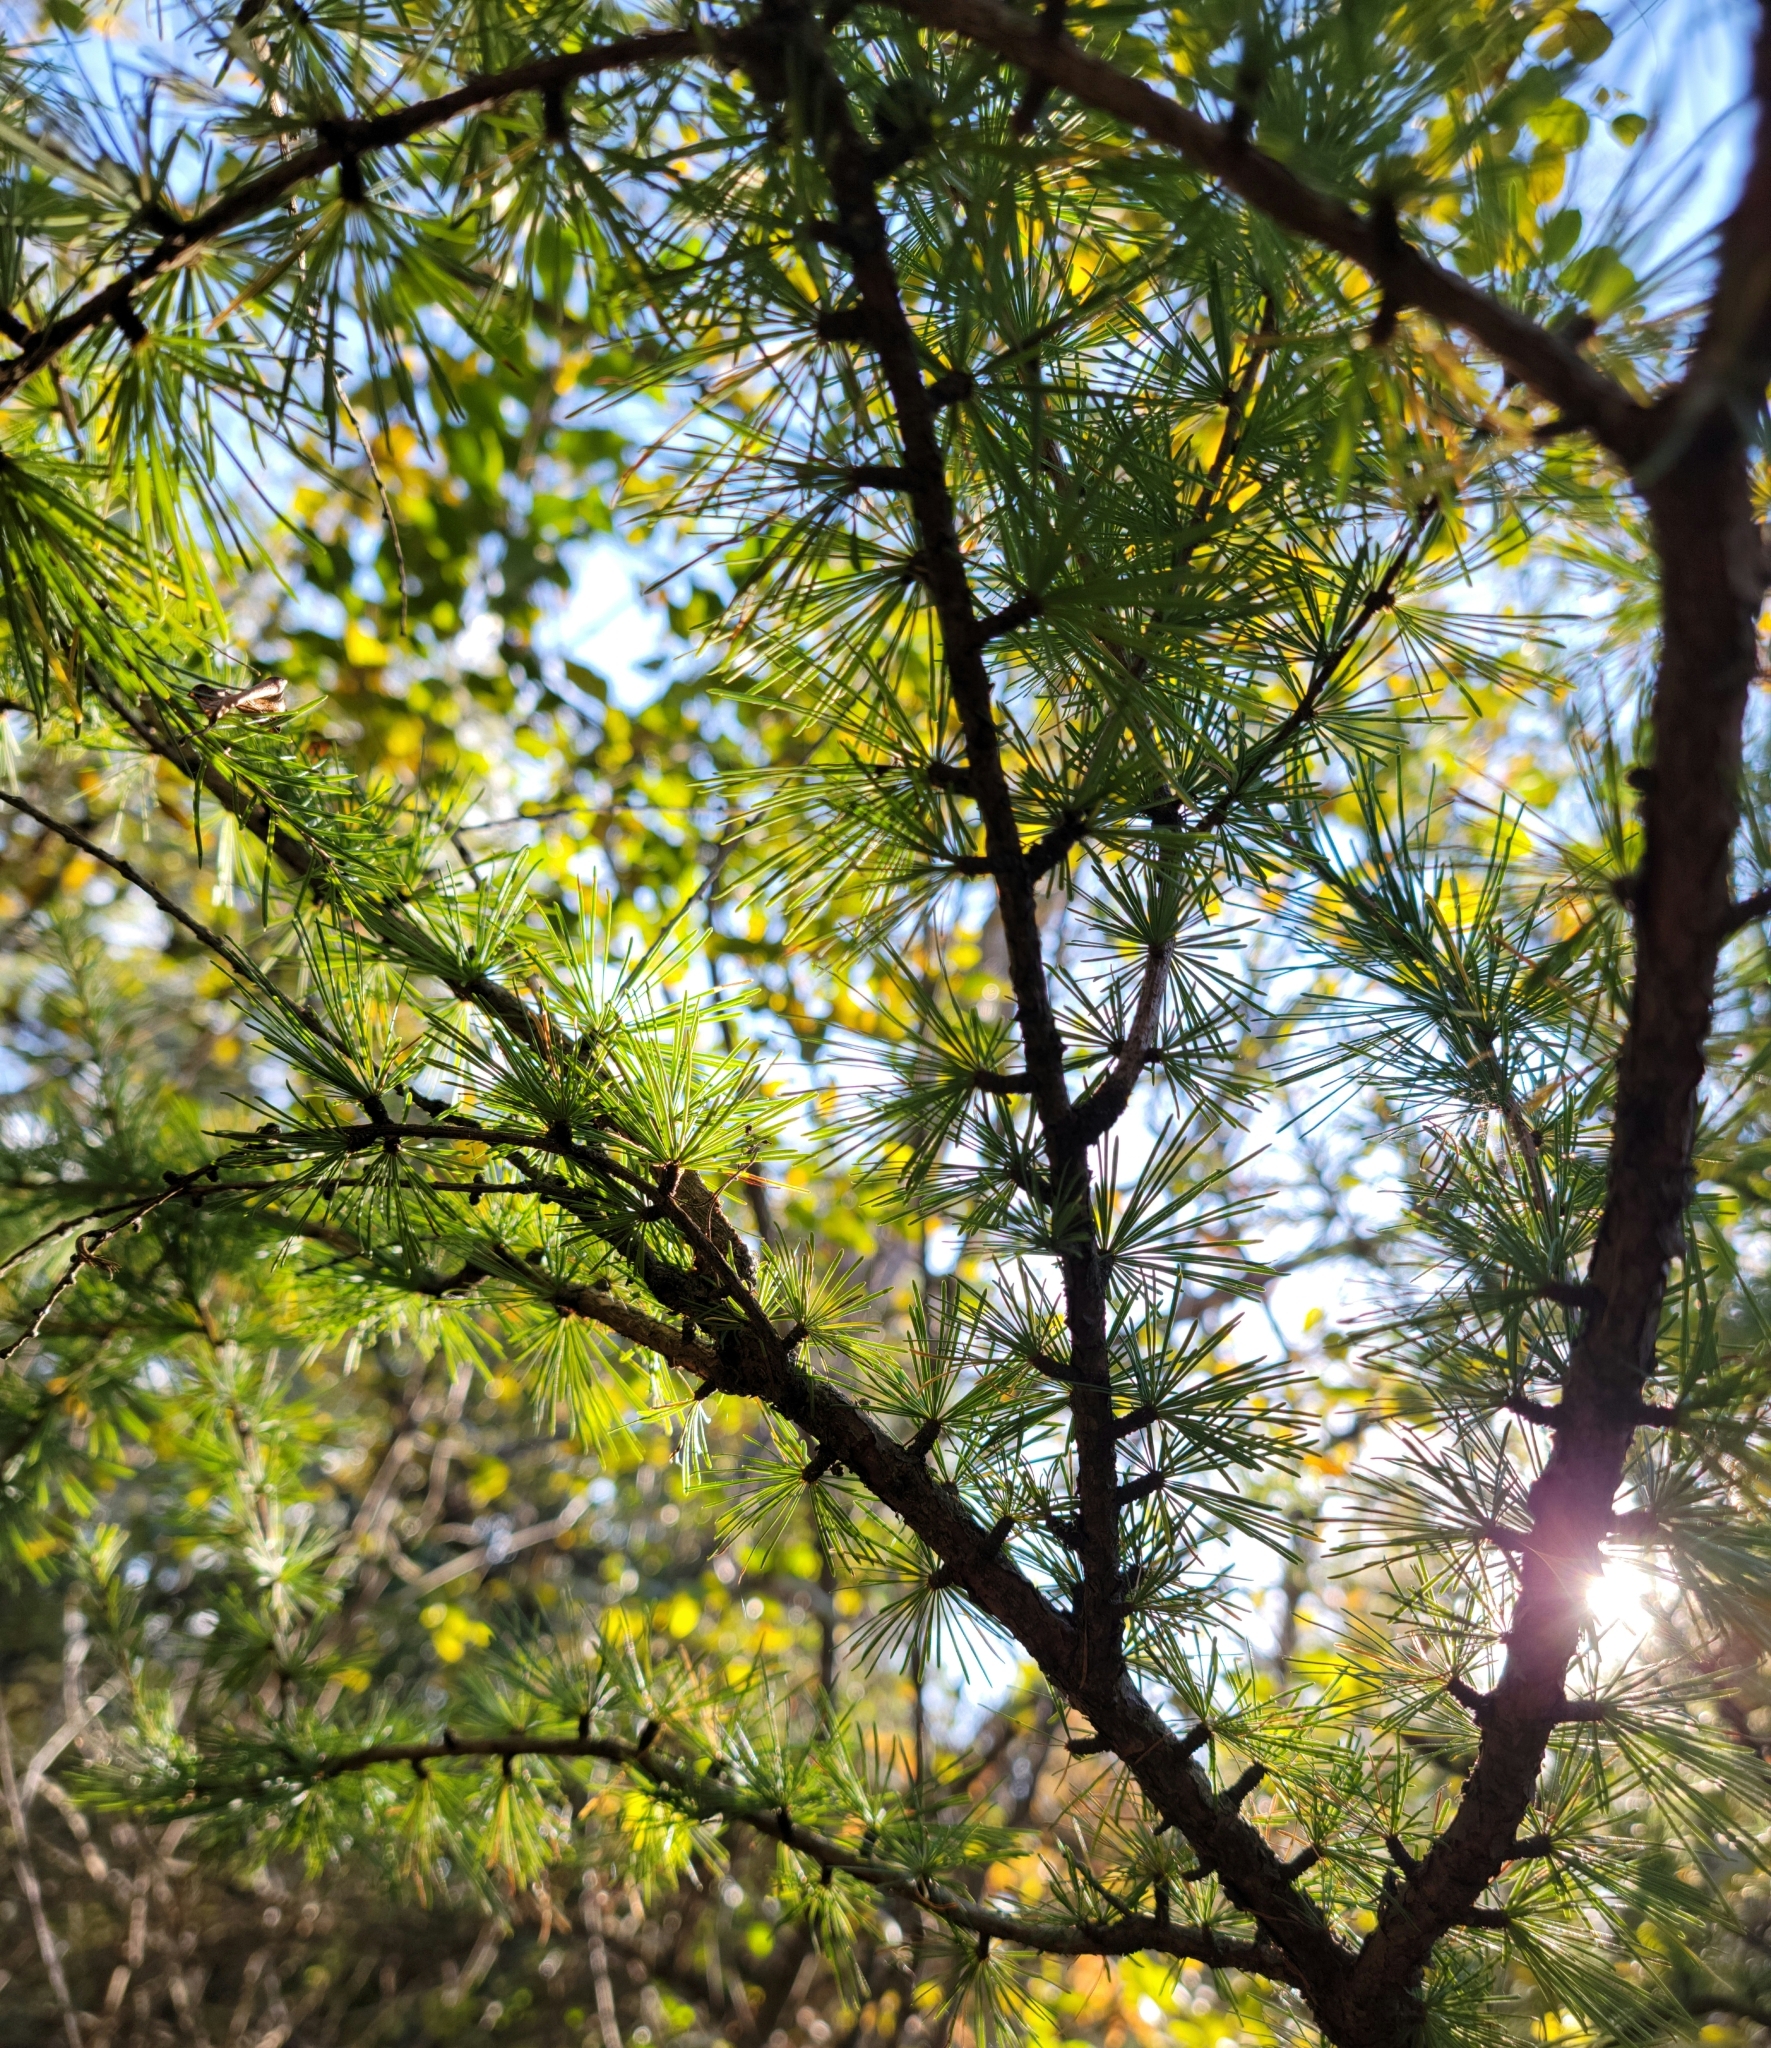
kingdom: Plantae
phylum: Tracheophyta
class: Pinopsida
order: Pinales
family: Pinaceae
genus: Larix
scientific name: Larix laricina
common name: American larch
